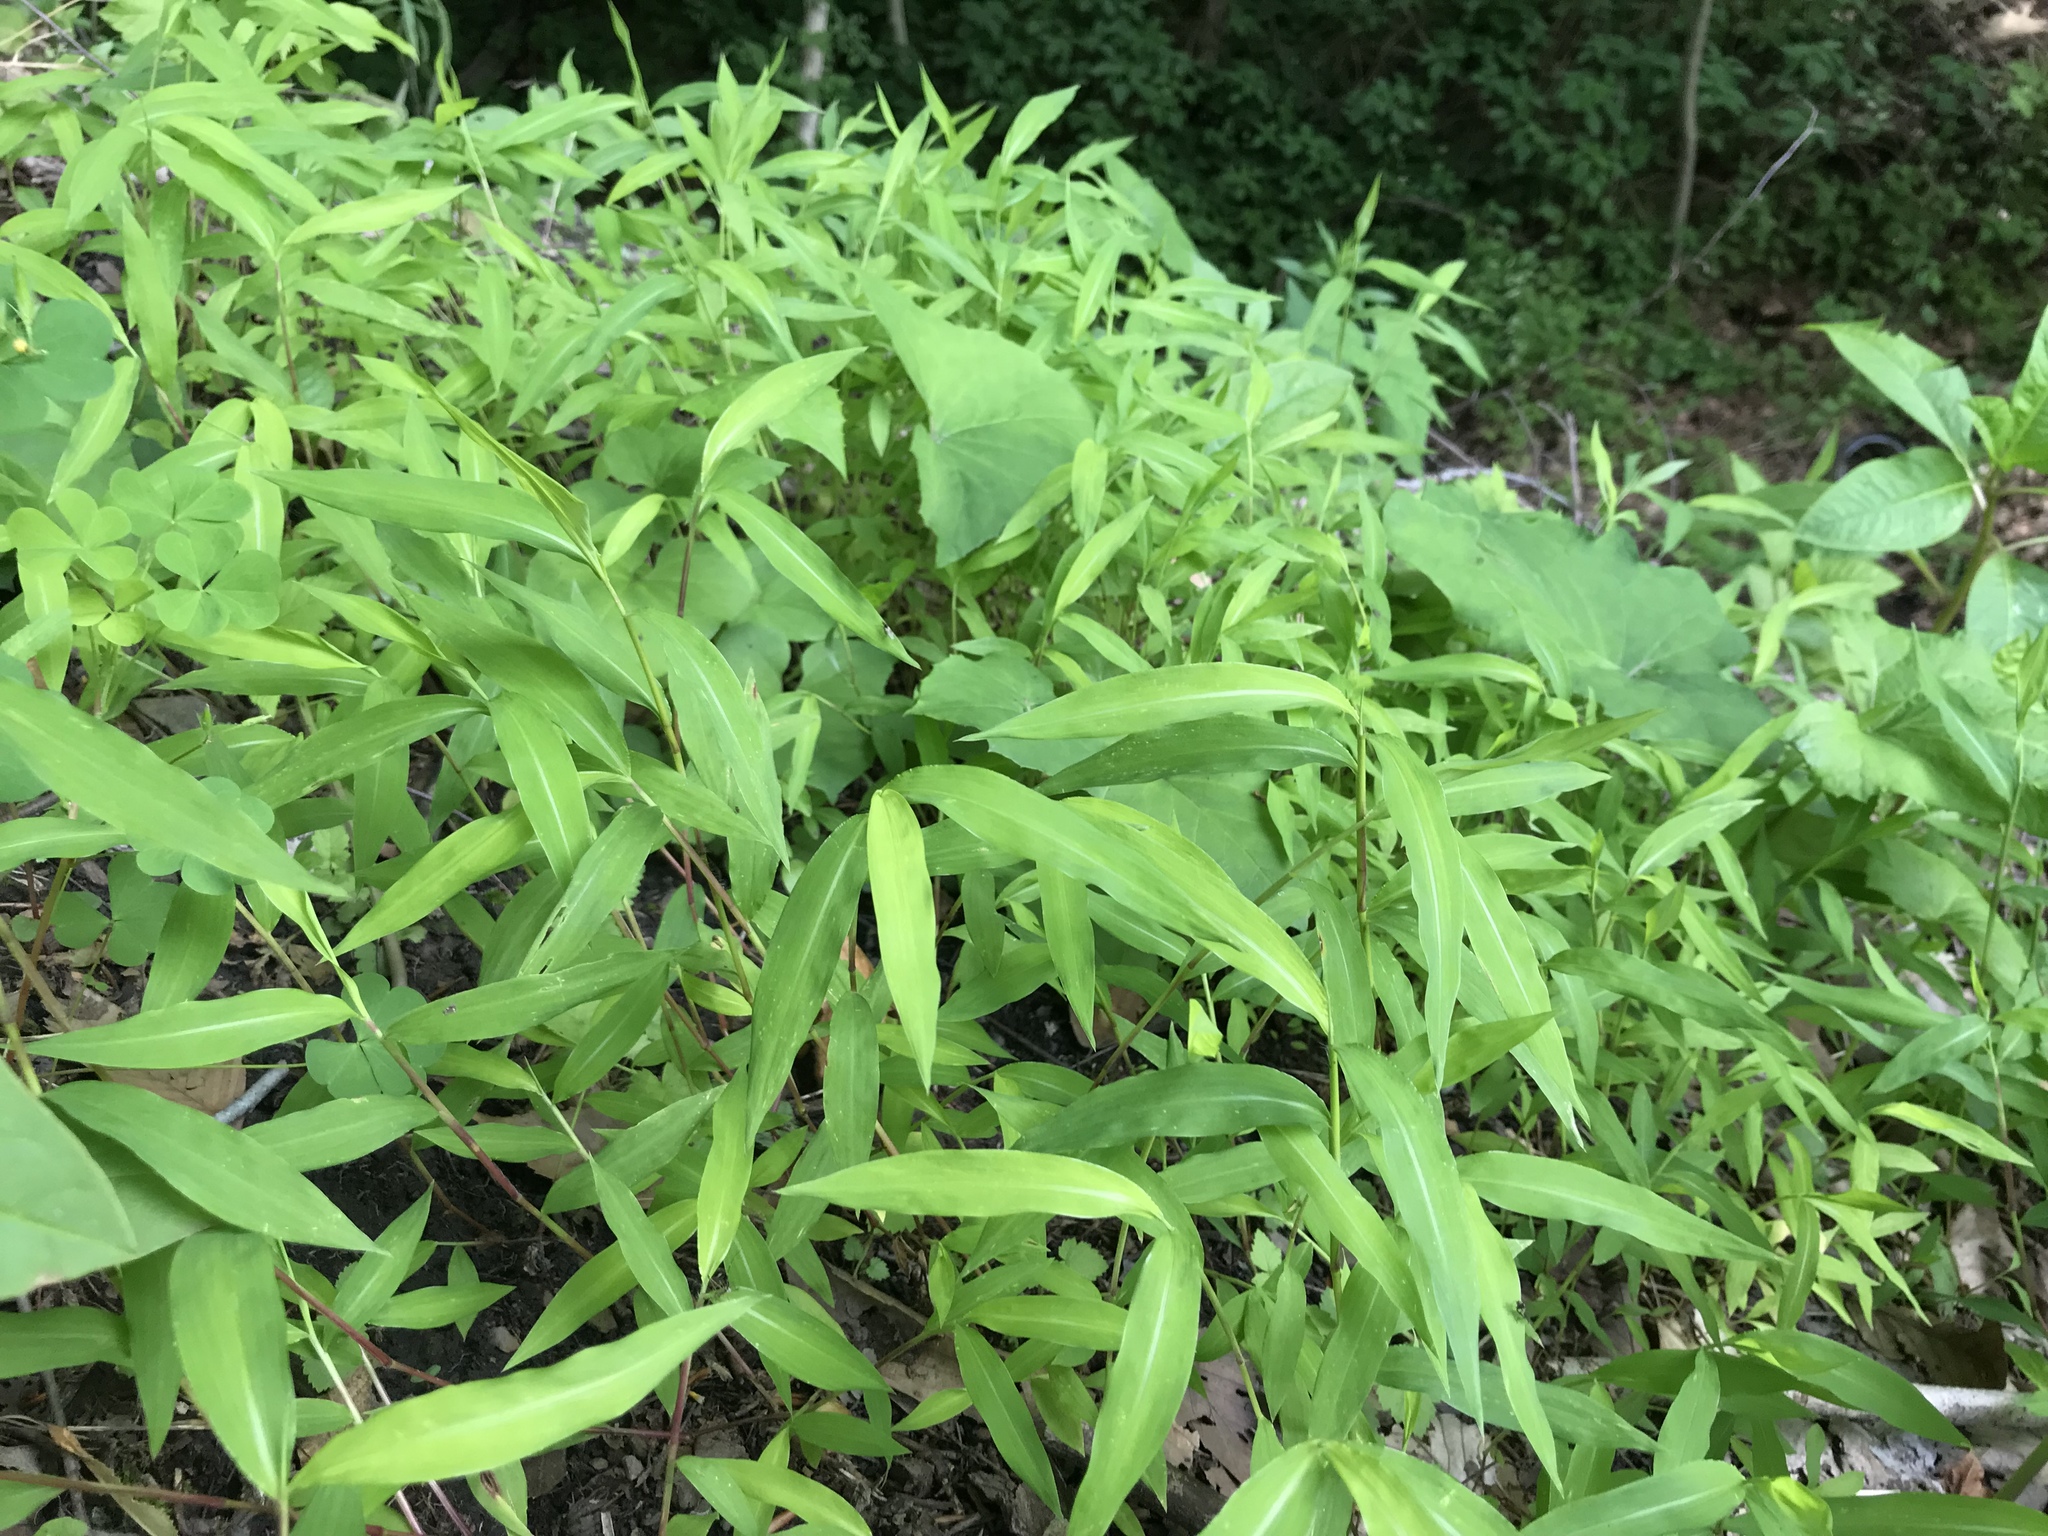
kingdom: Plantae
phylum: Tracheophyta
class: Liliopsida
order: Poales
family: Poaceae
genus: Microstegium
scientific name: Microstegium vimineum
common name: Japanese stiltgrass
